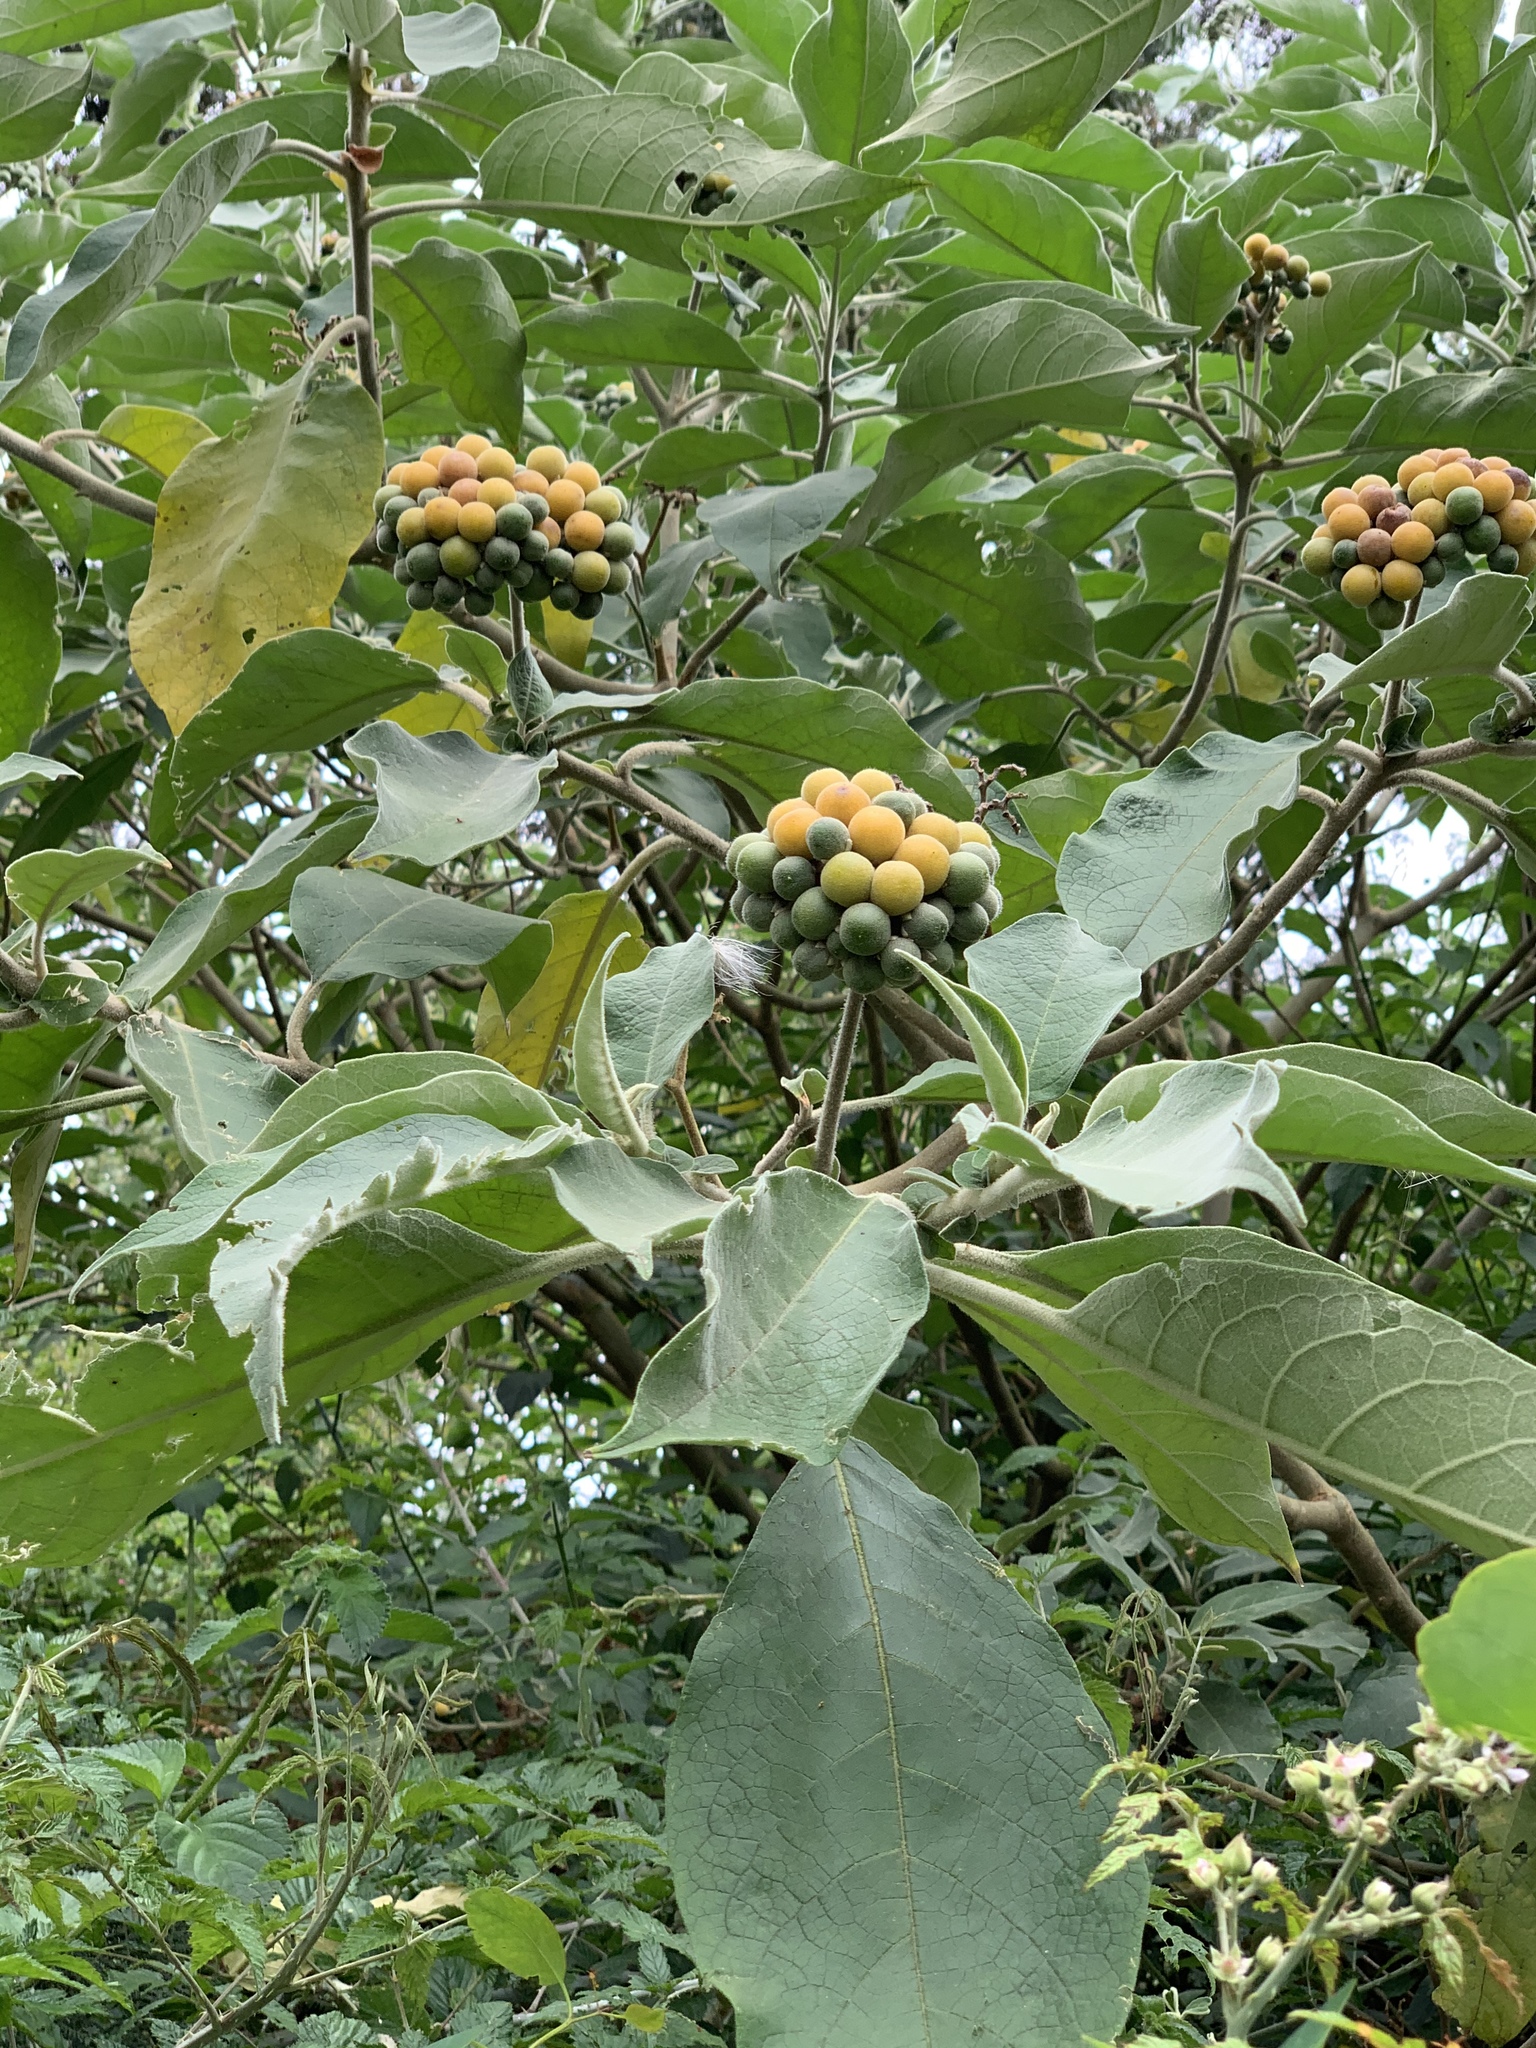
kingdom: Plantae
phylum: Tracheophyta
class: Magnoliopsida
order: Solanales
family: Solanaceae
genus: Solanum
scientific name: Solanum mauritianum
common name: Earleaf nightshade
